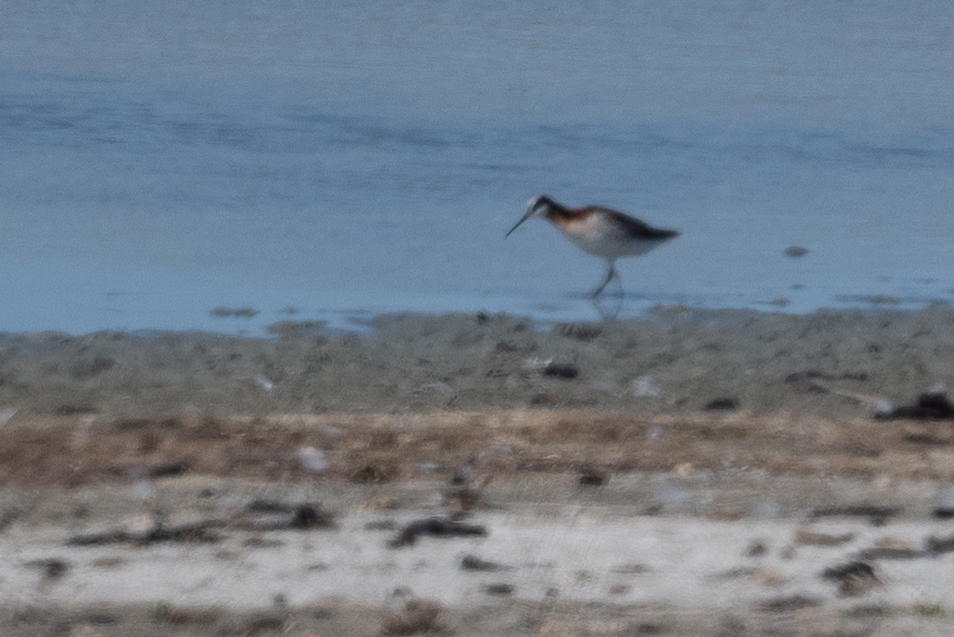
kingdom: Animalia
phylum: Chordata
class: Aves
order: Charadriiformes
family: Scolopacidae
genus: Phalaropus
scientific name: Phalaropus tricolor
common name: Wilson's phalarope
